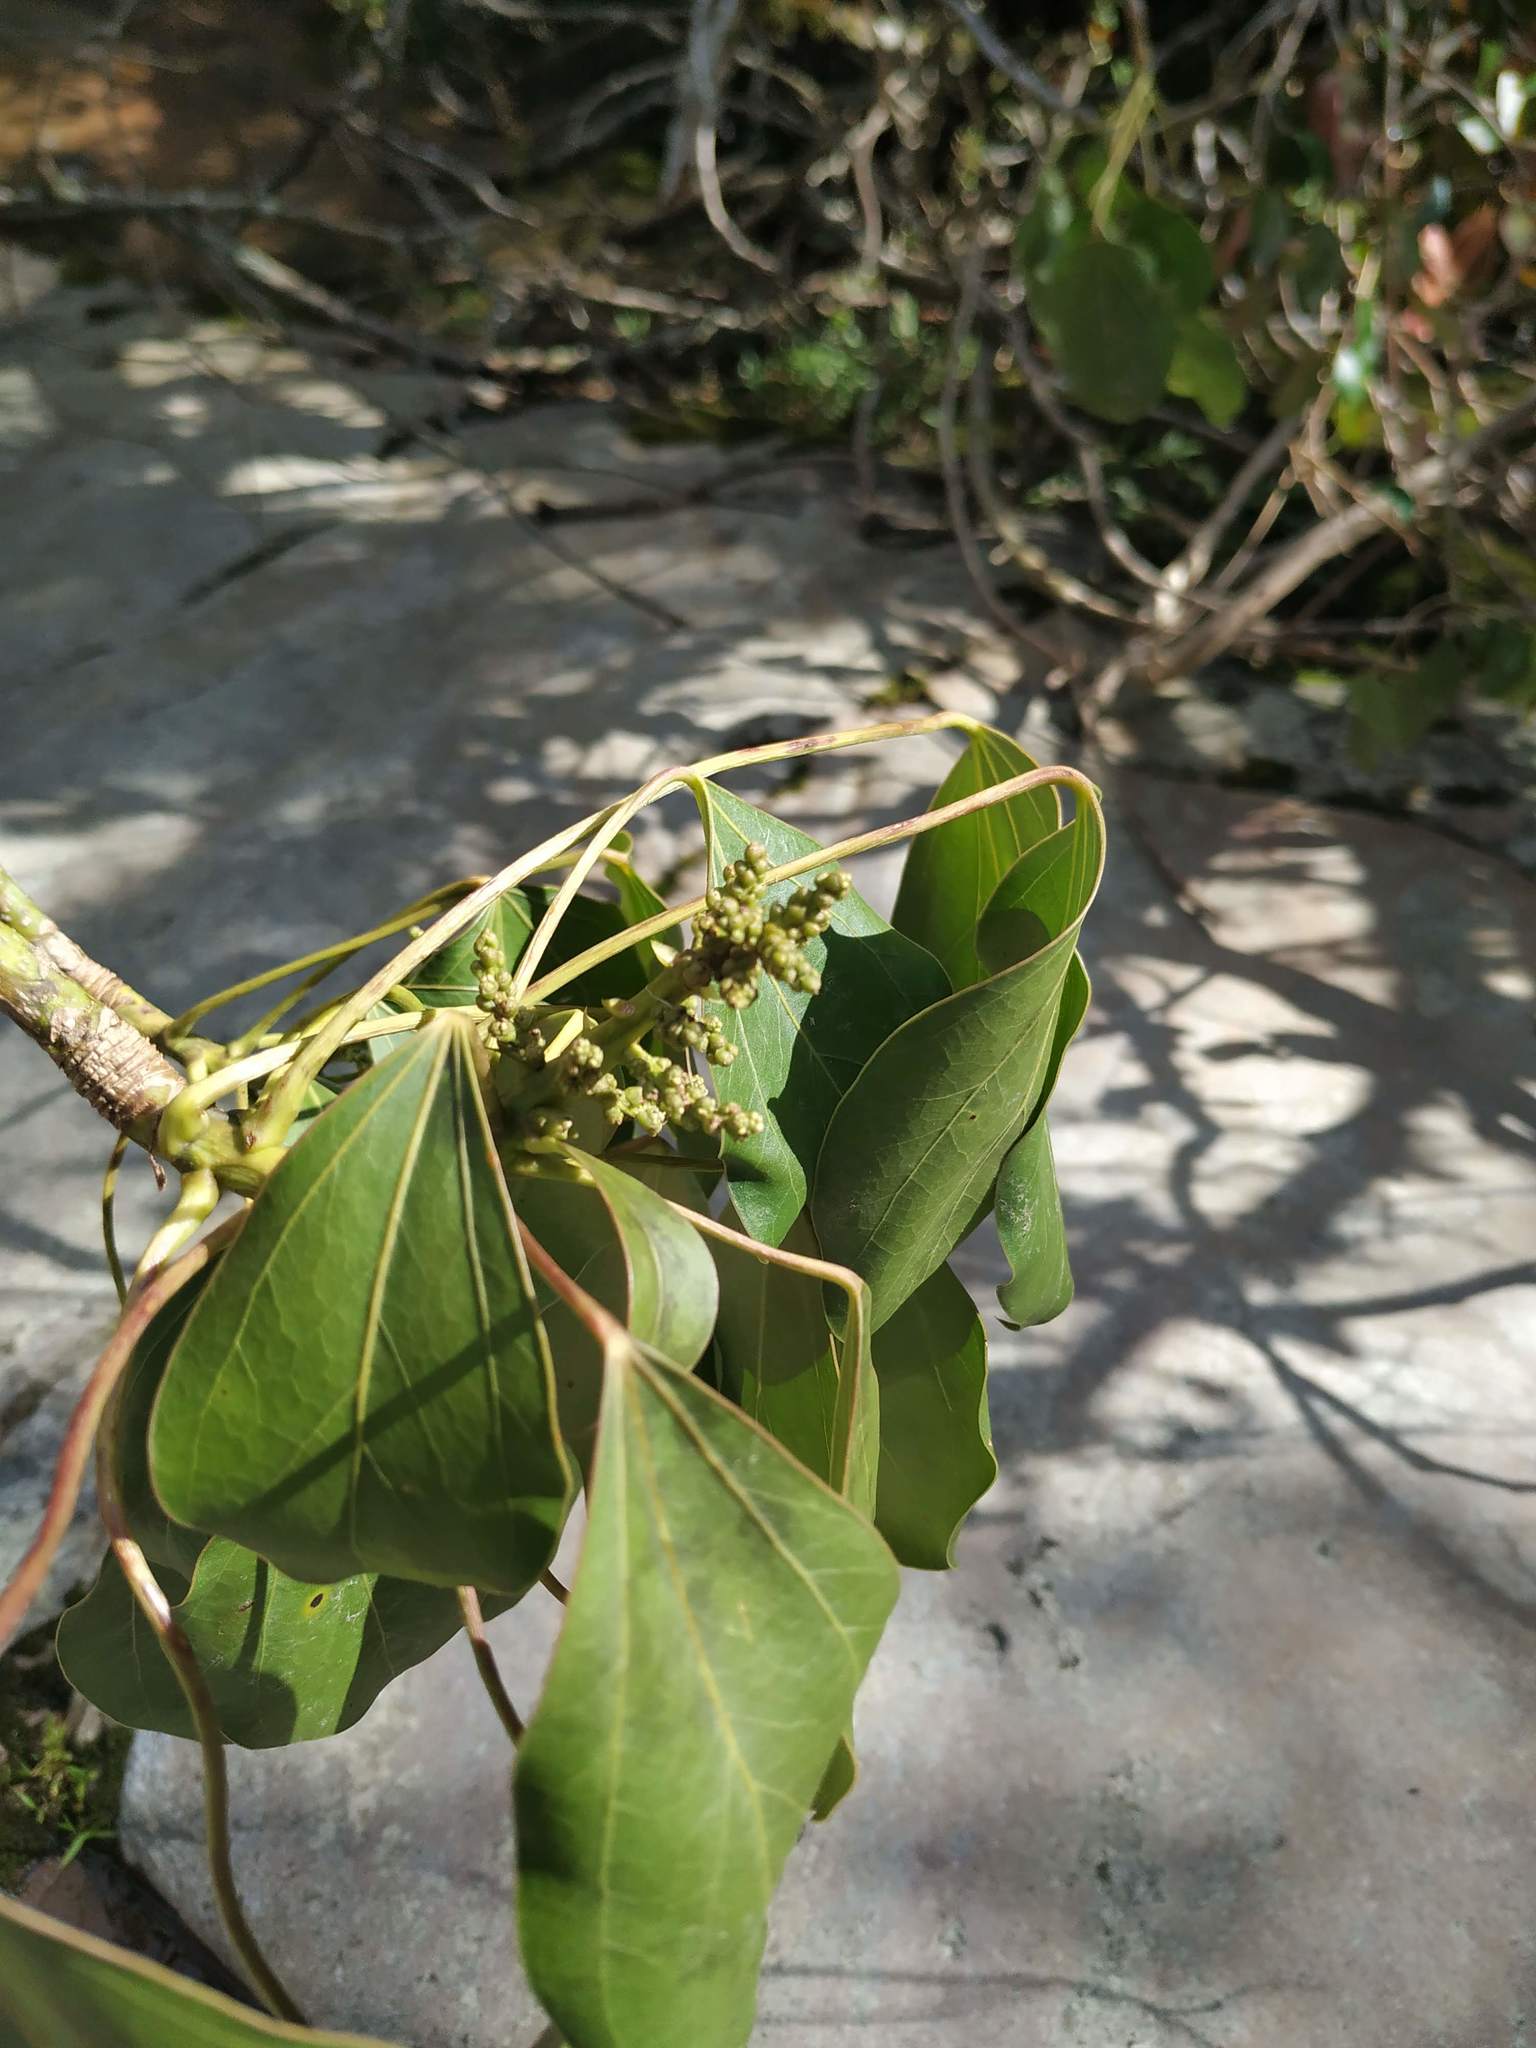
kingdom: Plantae
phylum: Tracheophyta
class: Magnoliopsida
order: Apiales
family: Araliaceae
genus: Oreopanax
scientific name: Oreopanax capitatus
